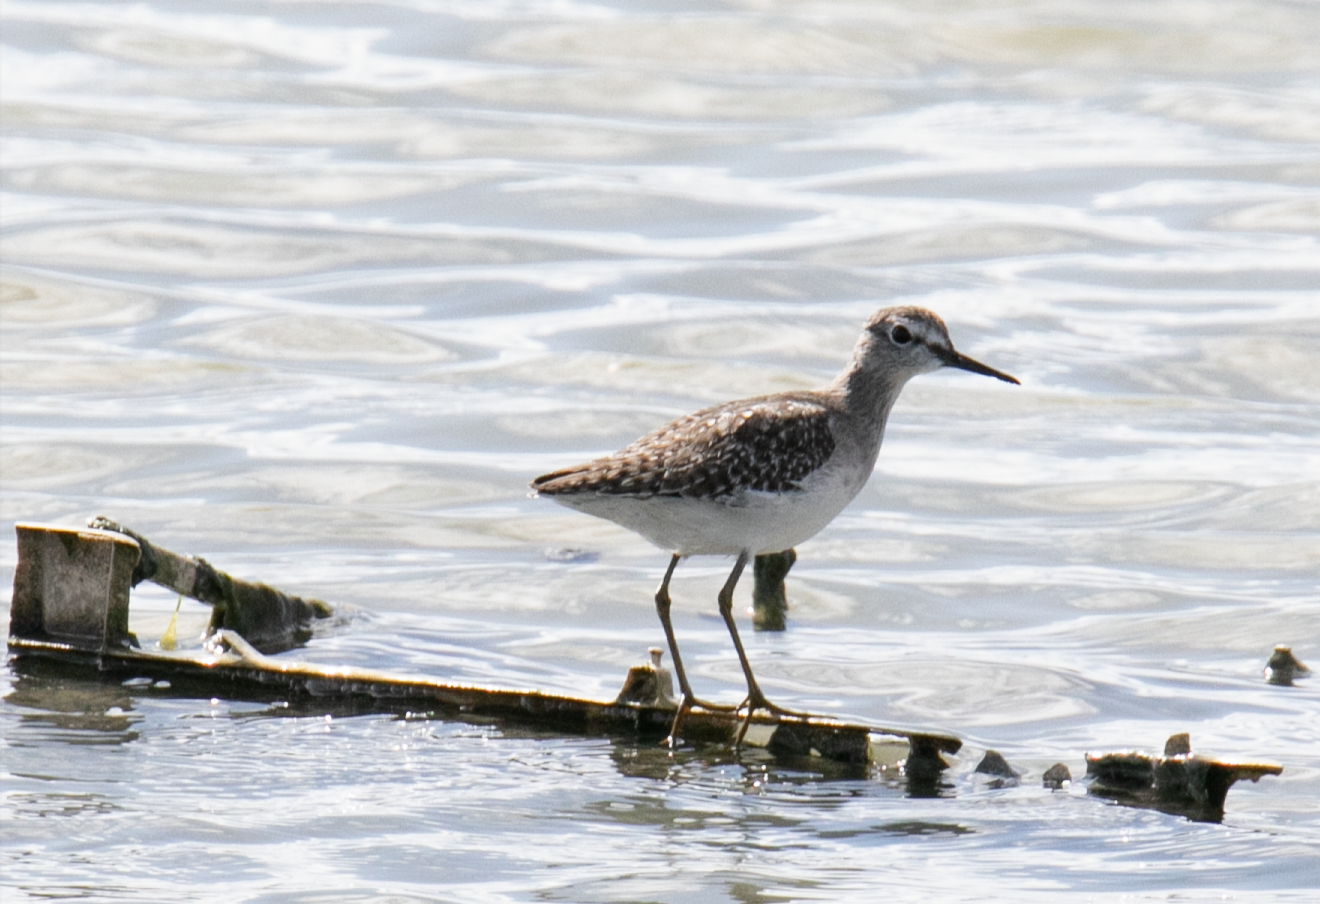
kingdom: Animalia
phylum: Chordata
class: Aves
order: Charadriiformes
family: Scolopacidae
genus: Tringa
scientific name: Tringa glareola
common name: Wood sandpiper
